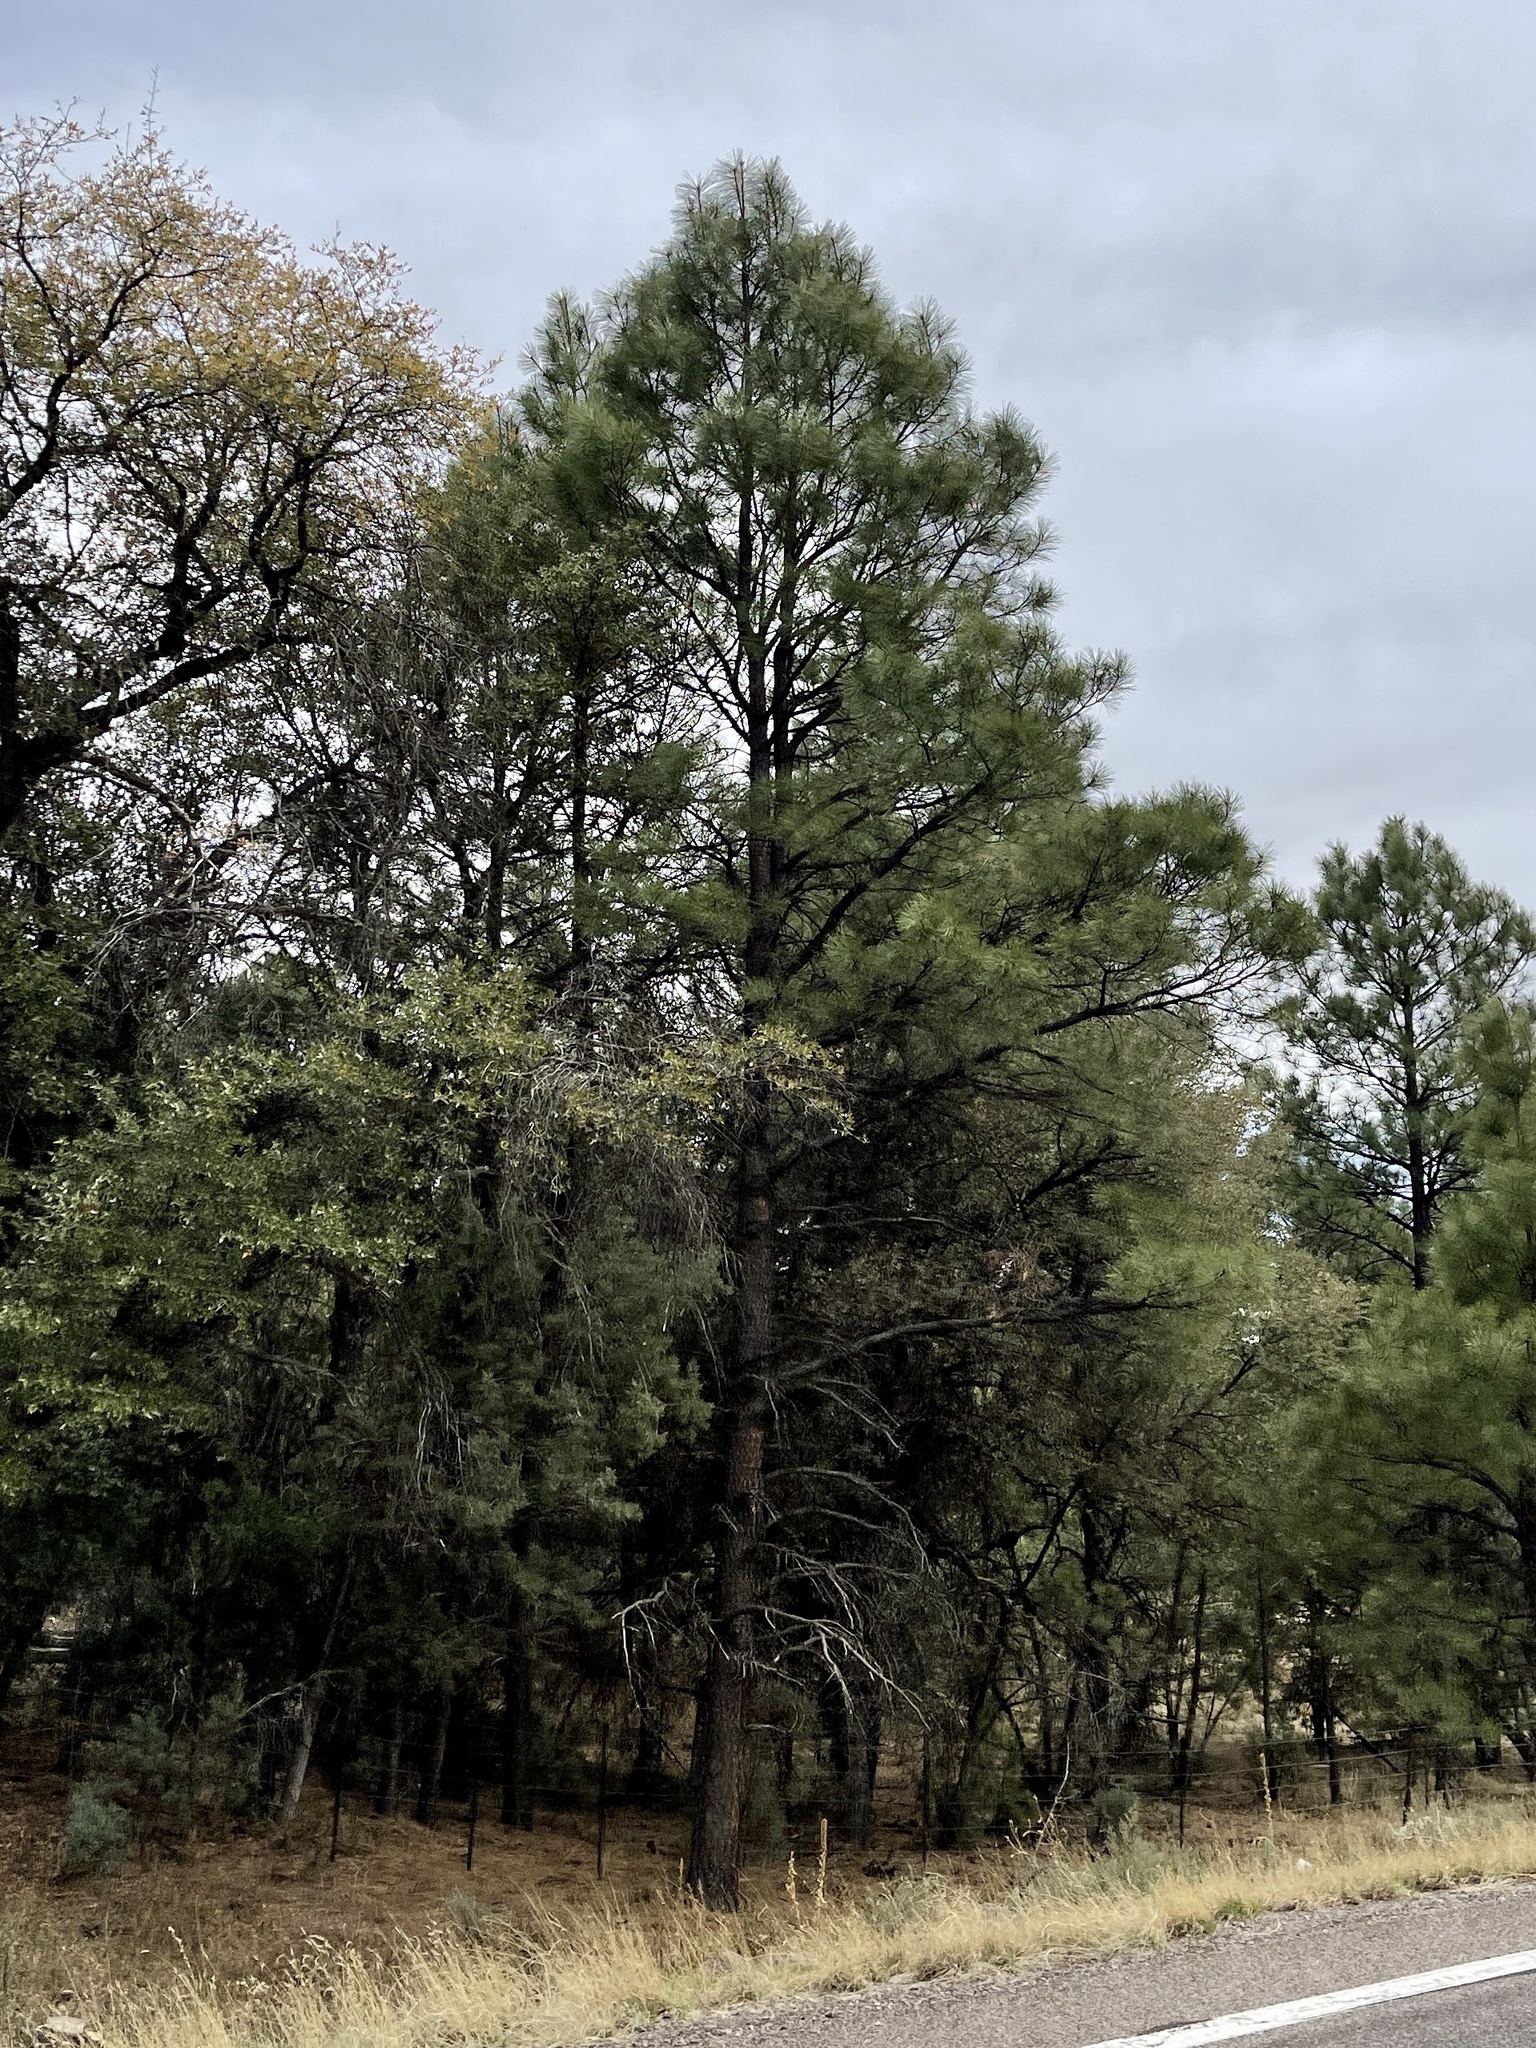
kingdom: Plantae
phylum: Tracheophyta
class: Pinopsida
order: Pinales
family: Pinaceae
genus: Pinus
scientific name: Pinus ponderosa
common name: Western yellow-pine
